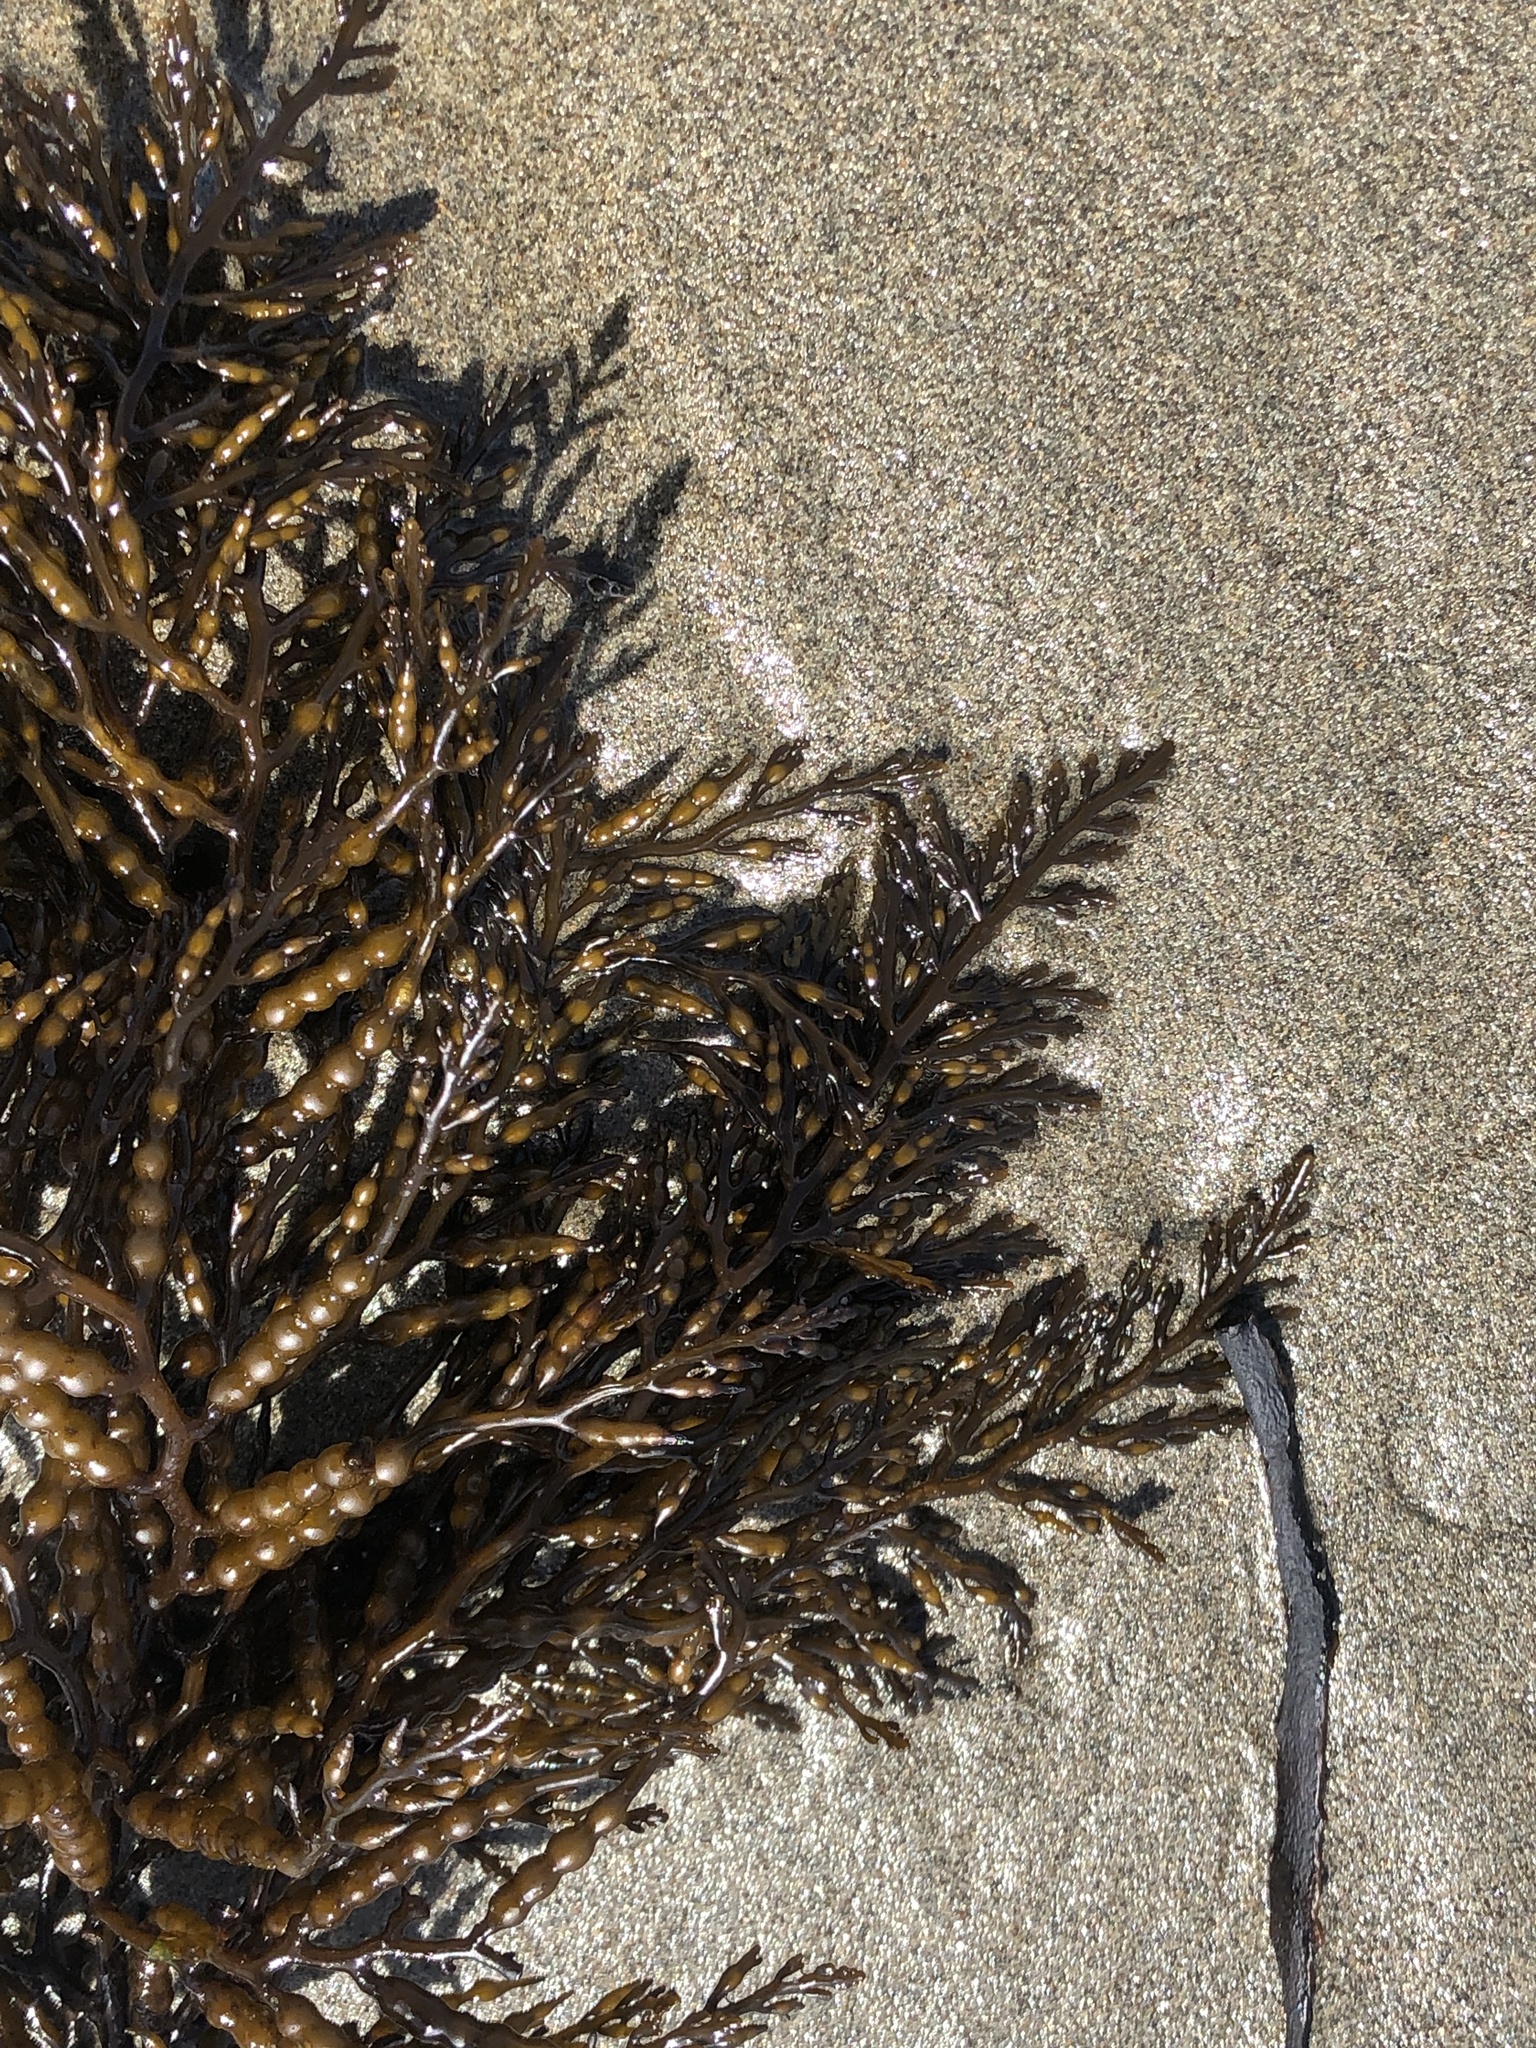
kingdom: Chromista
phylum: Ochrophyta
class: Phaeophyceae
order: Fucales
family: Sargassaceae
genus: Stephanocystis
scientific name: Stephanocystis
